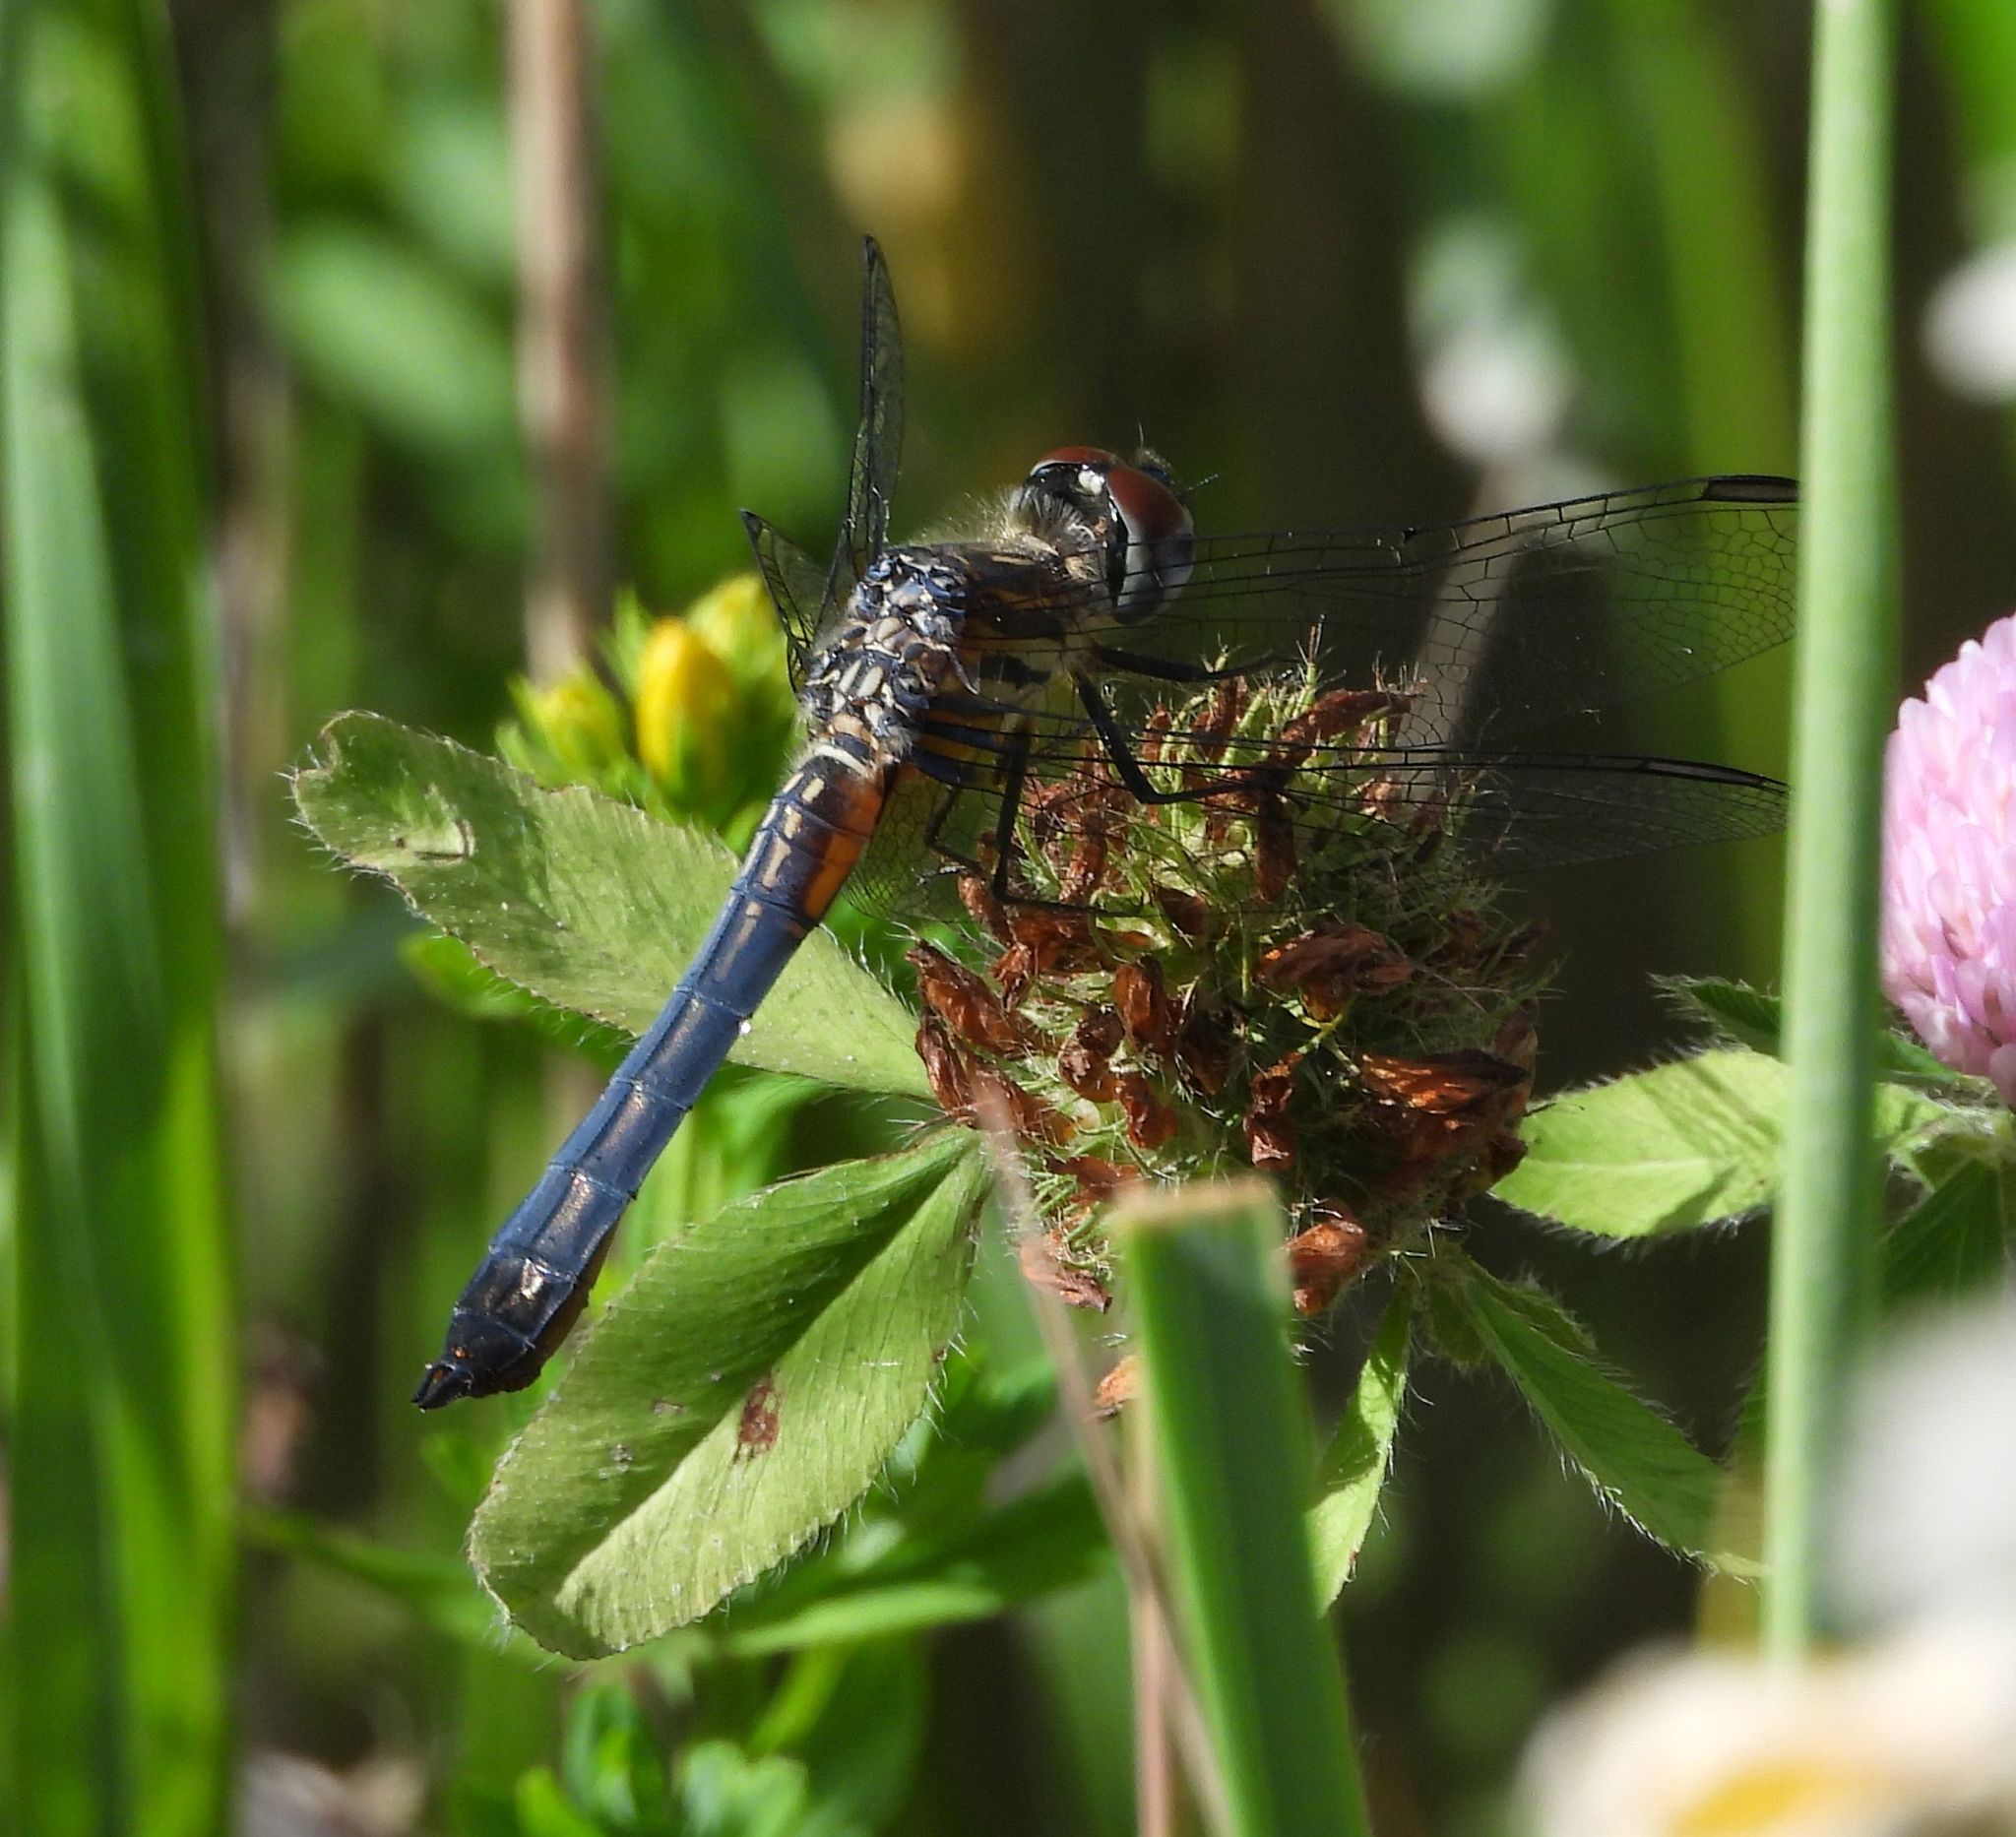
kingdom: Animalia
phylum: Arthropoda
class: Insecta
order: Odonata
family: Libellulidae
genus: Pachydiplax
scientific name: Pachydiplax longipennis
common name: Blue dasher
